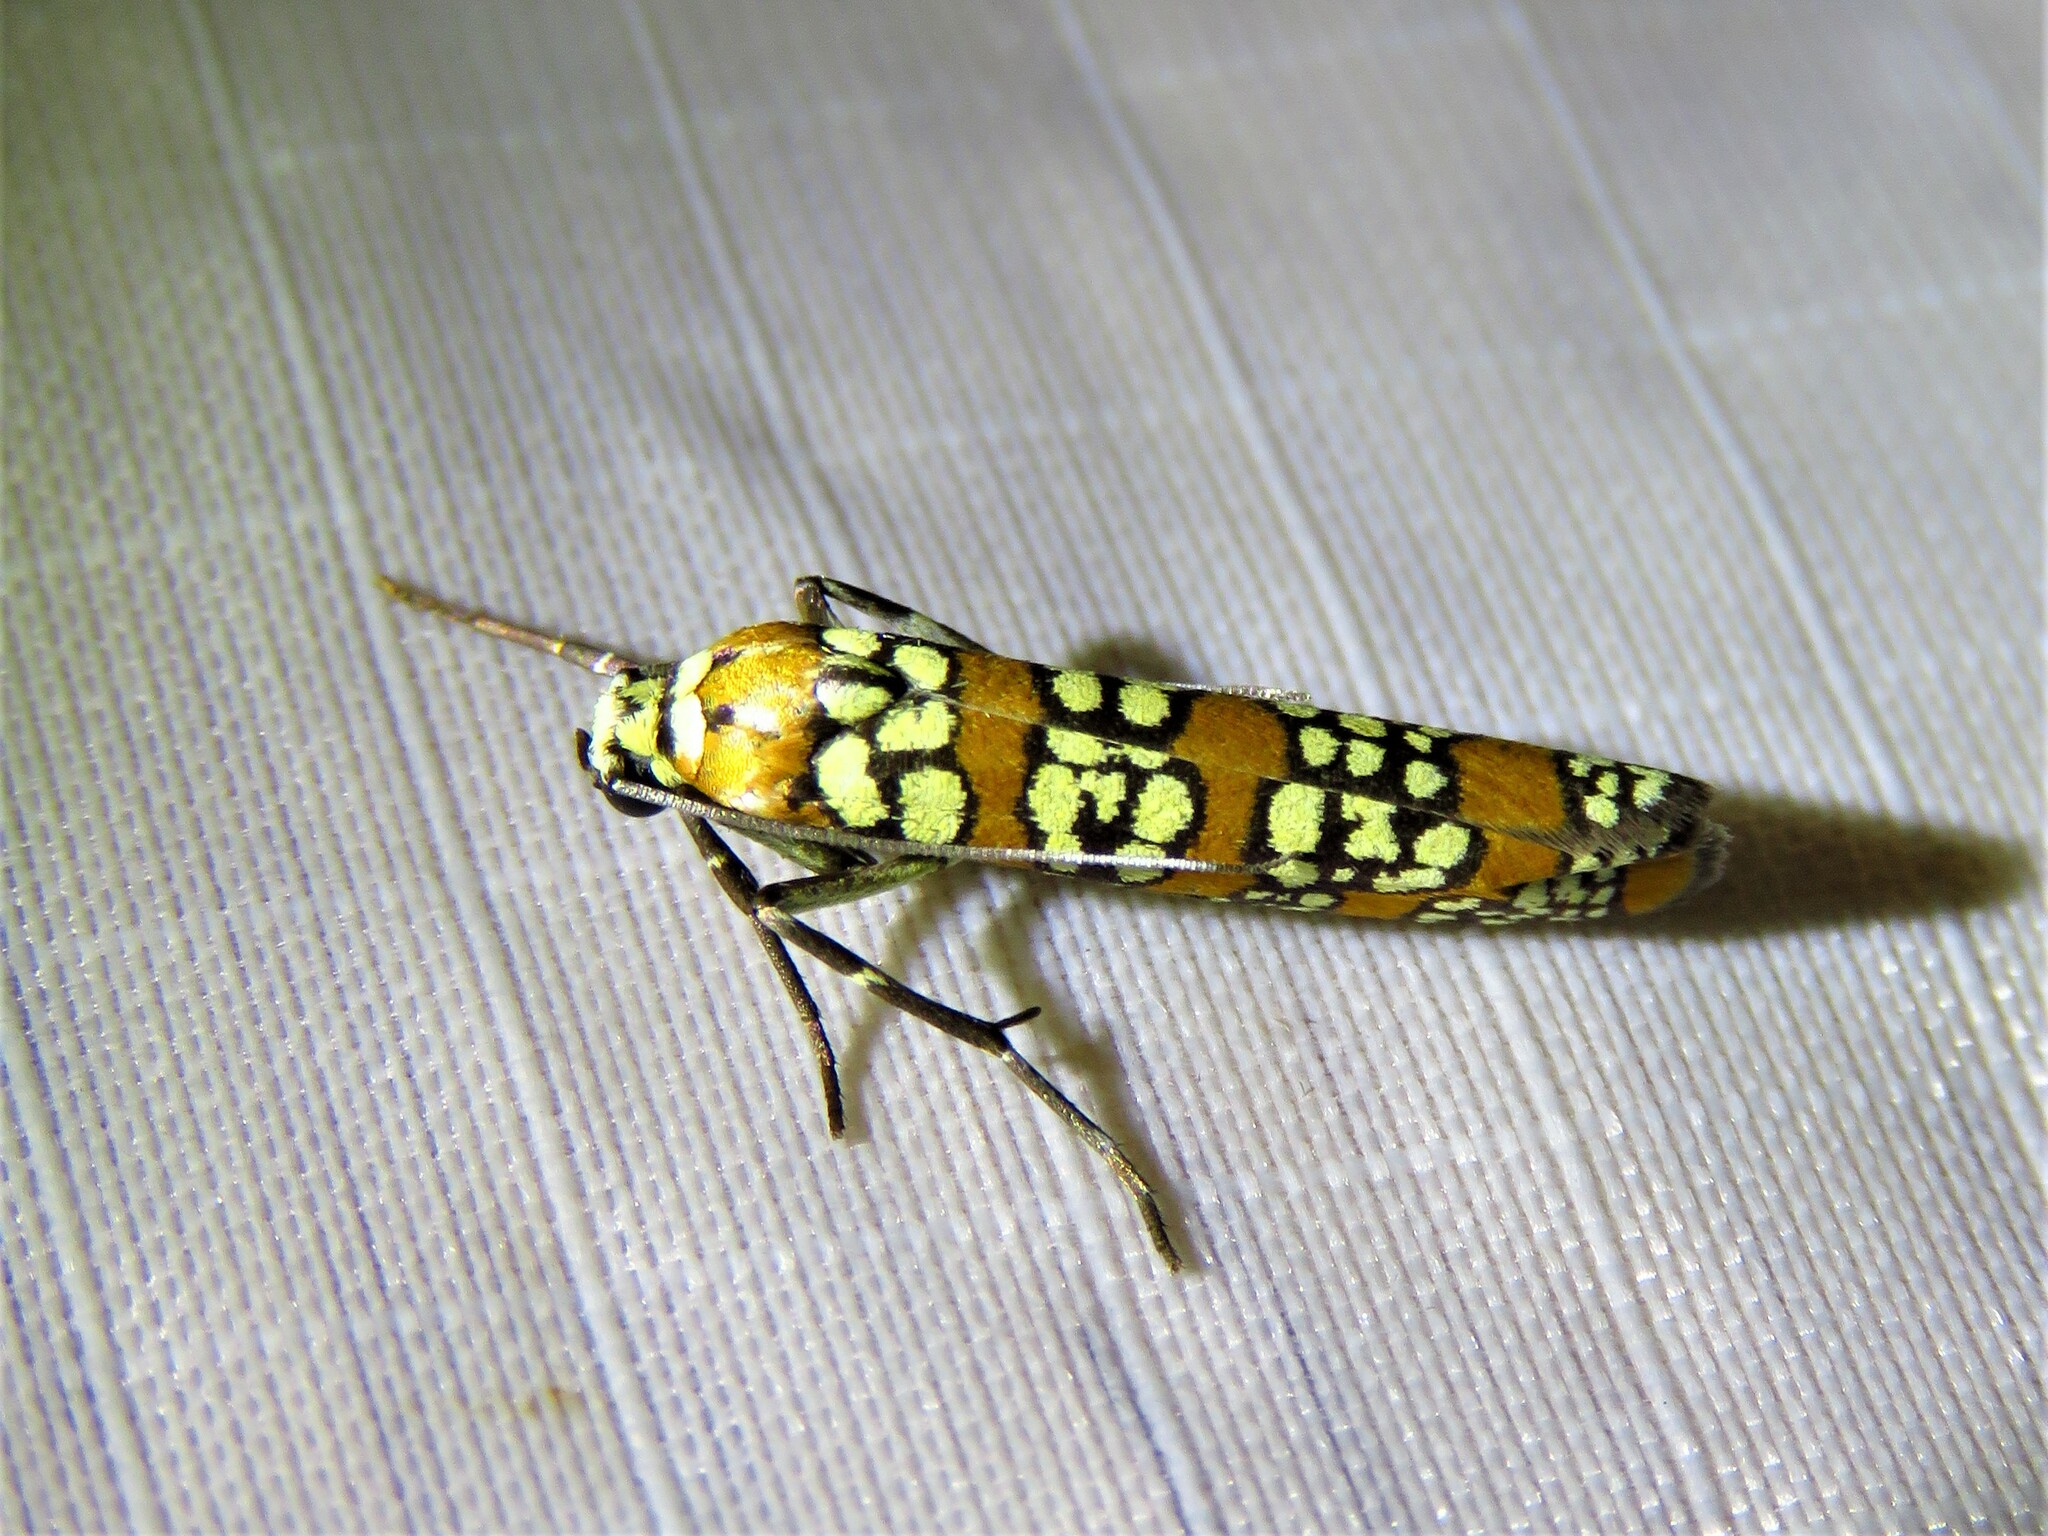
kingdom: Animalia
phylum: Arthropoda
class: Insecta
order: Lepidoptera
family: Attevidae
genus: Atteva
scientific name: Atteva punctella
